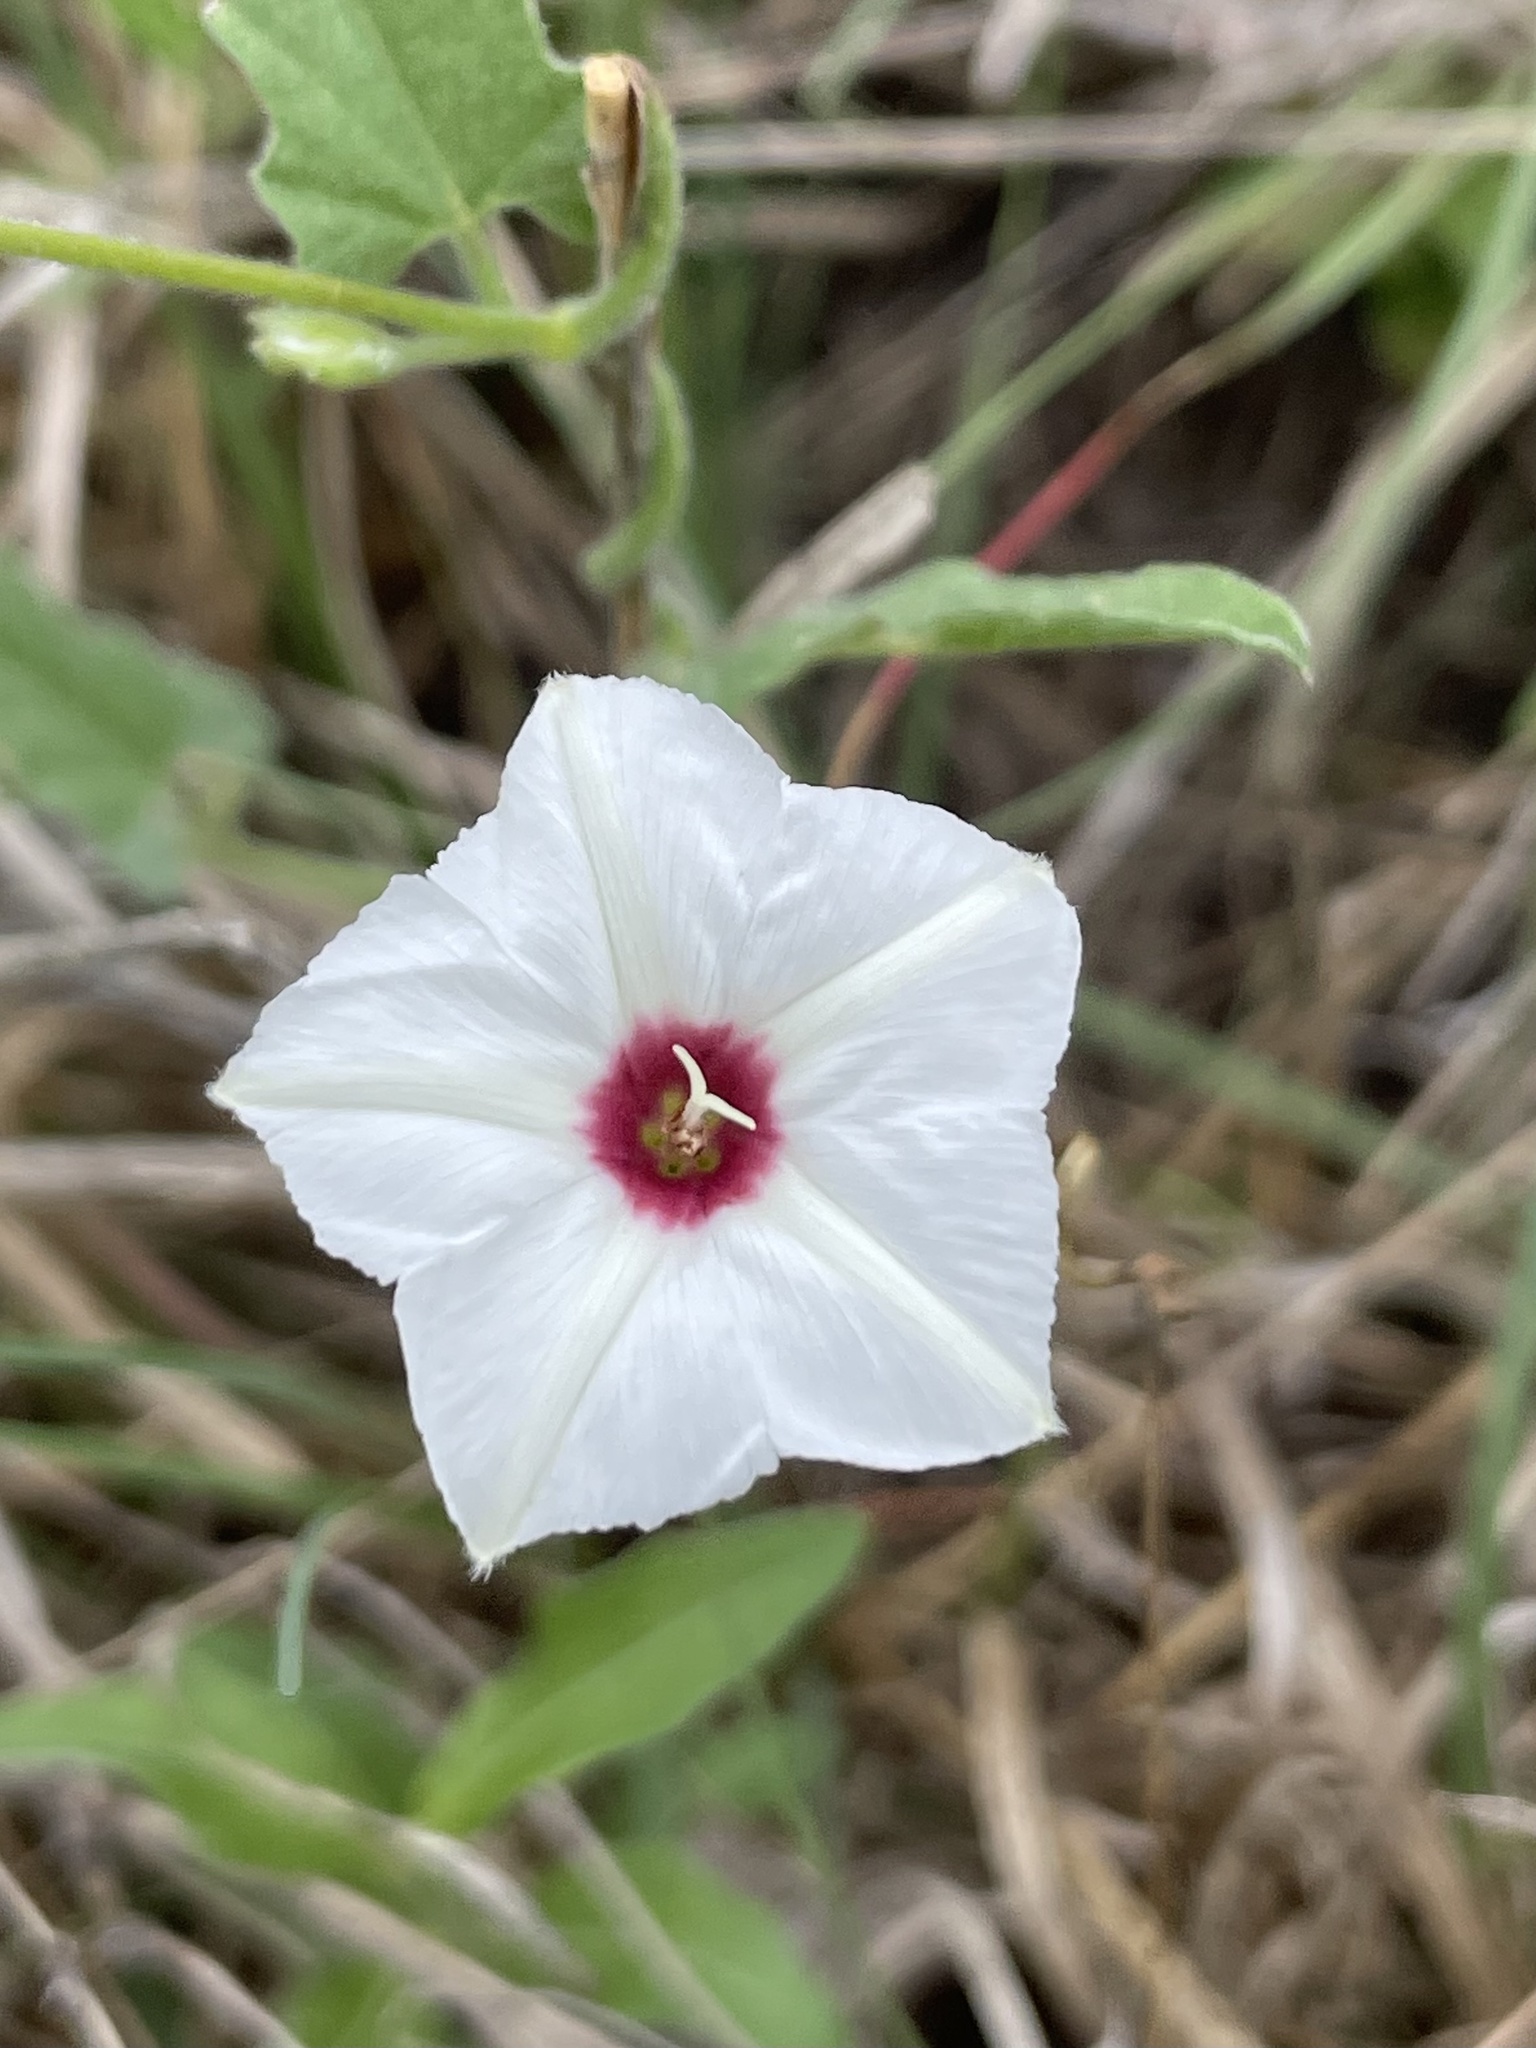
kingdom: Plantae
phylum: Tracheophyta
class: Magnoliopsida
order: Solanales
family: Convolvulaceae
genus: Convolvulus
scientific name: Convolvulus equitans
